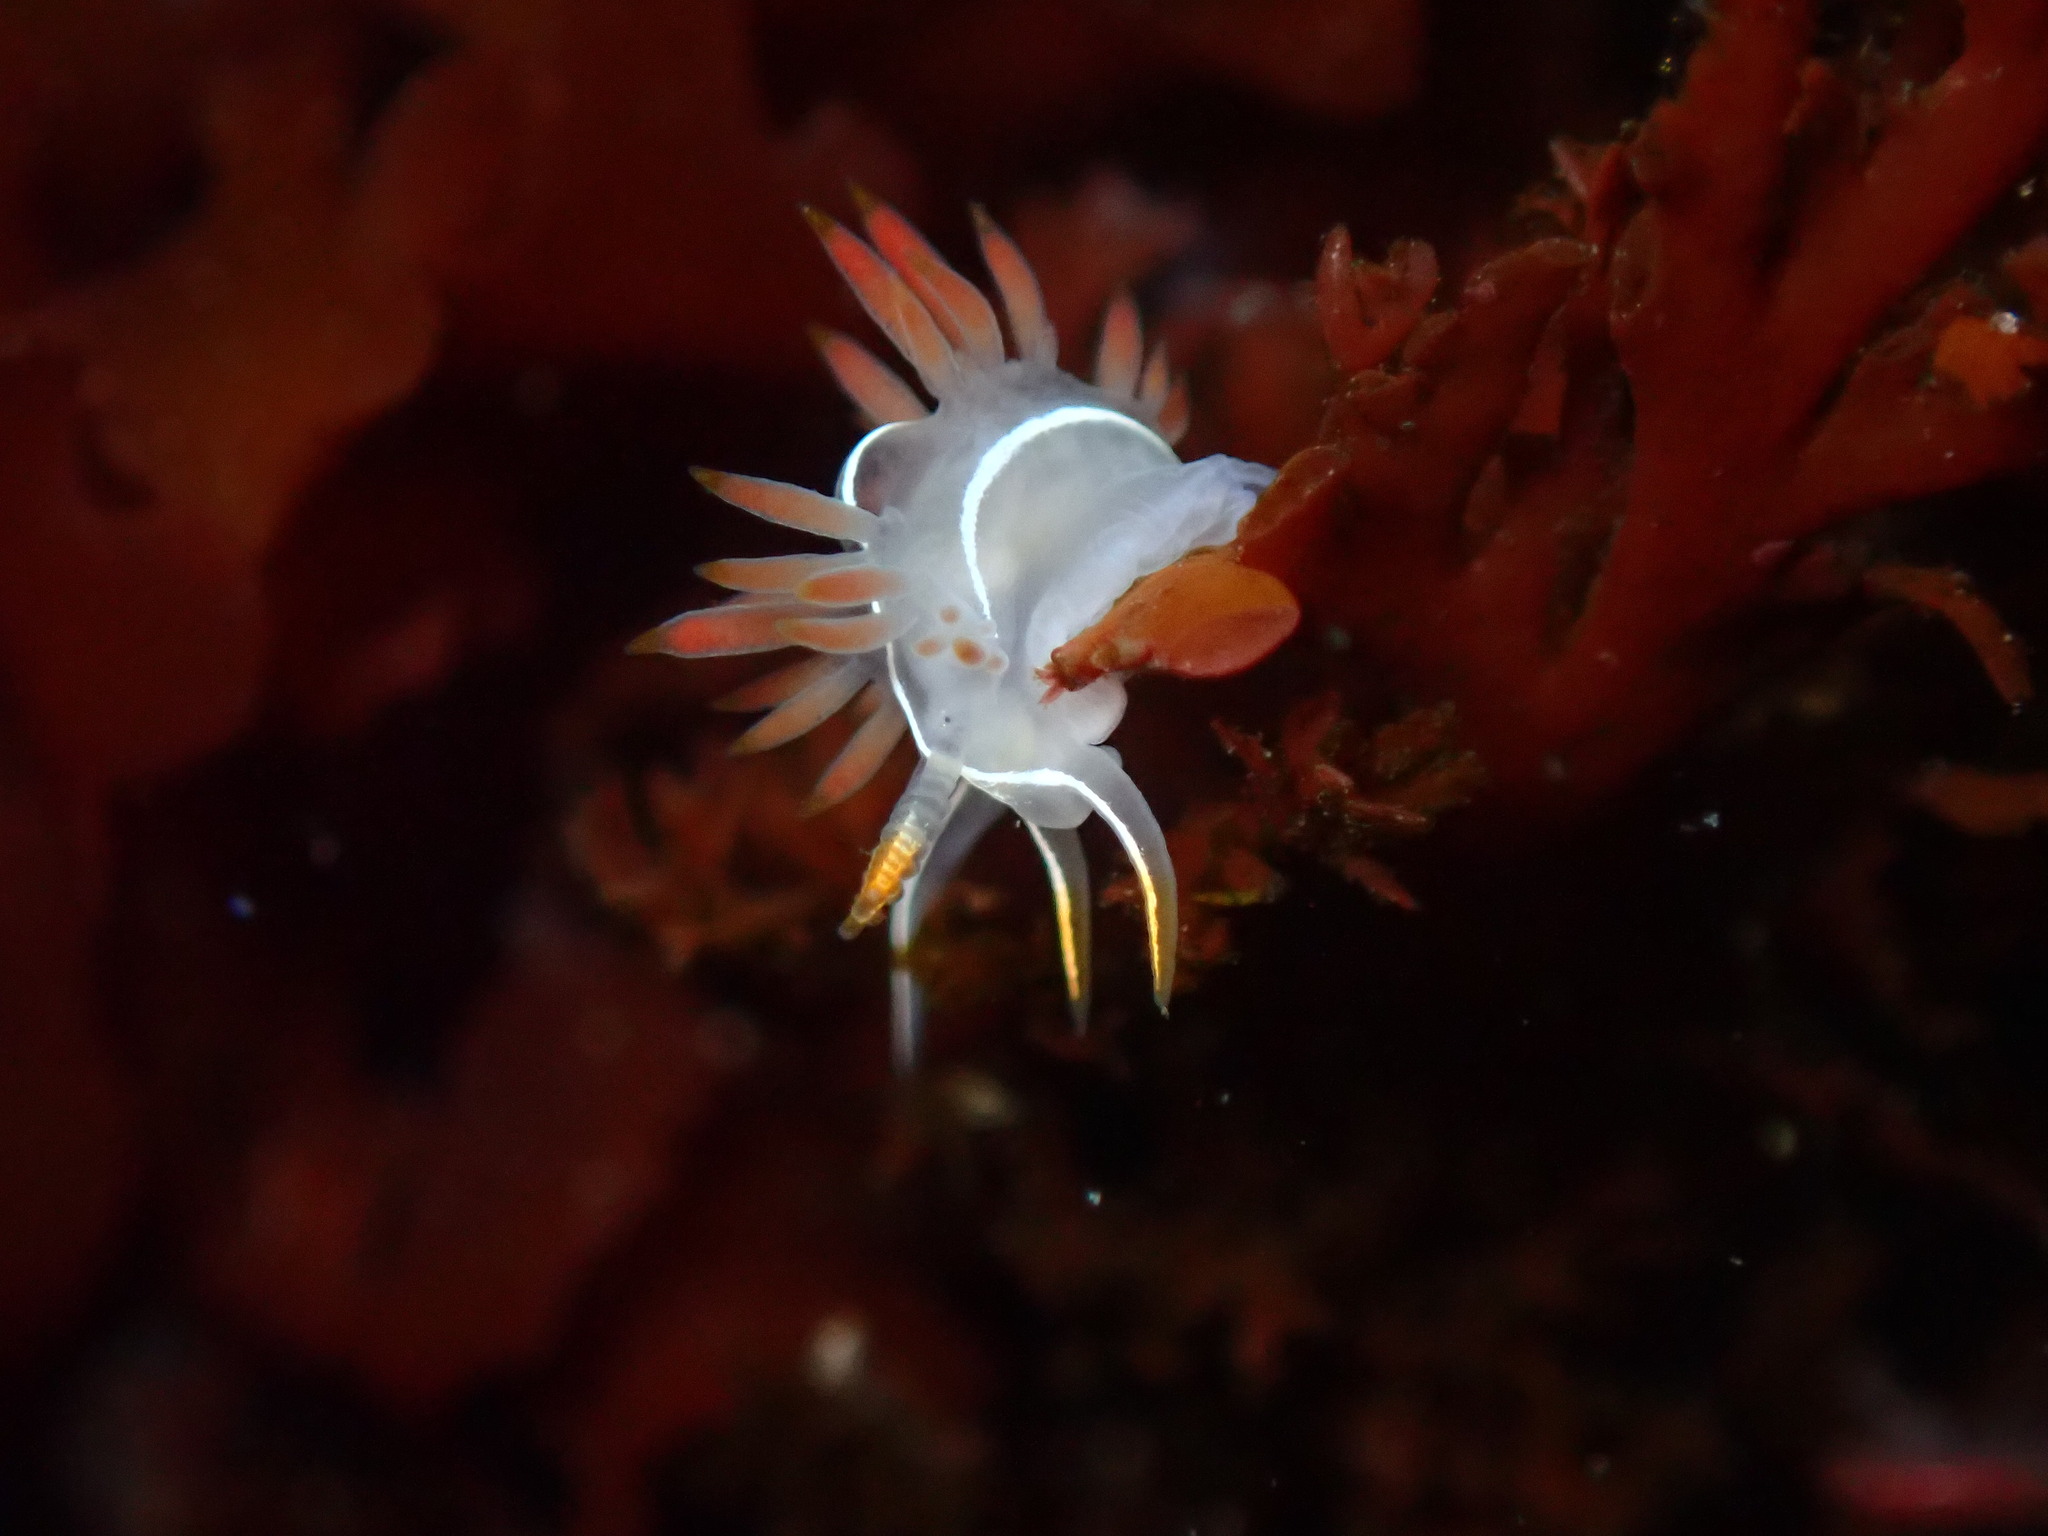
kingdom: Animalia
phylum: Mollusca
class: Gastropoda
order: Nudibranchia
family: Coryphellidae
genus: Coryphella
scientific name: Coryphella trilineata
